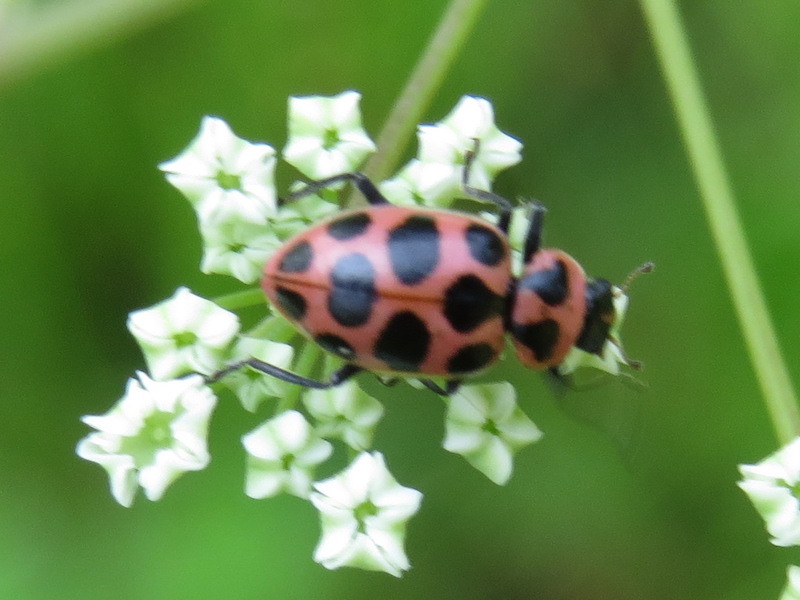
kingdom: Animalia
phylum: Arthropoda
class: Insecta
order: Coleoptera
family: Coccinellidae
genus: Coleomegilla
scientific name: Coleomegilla maculata
